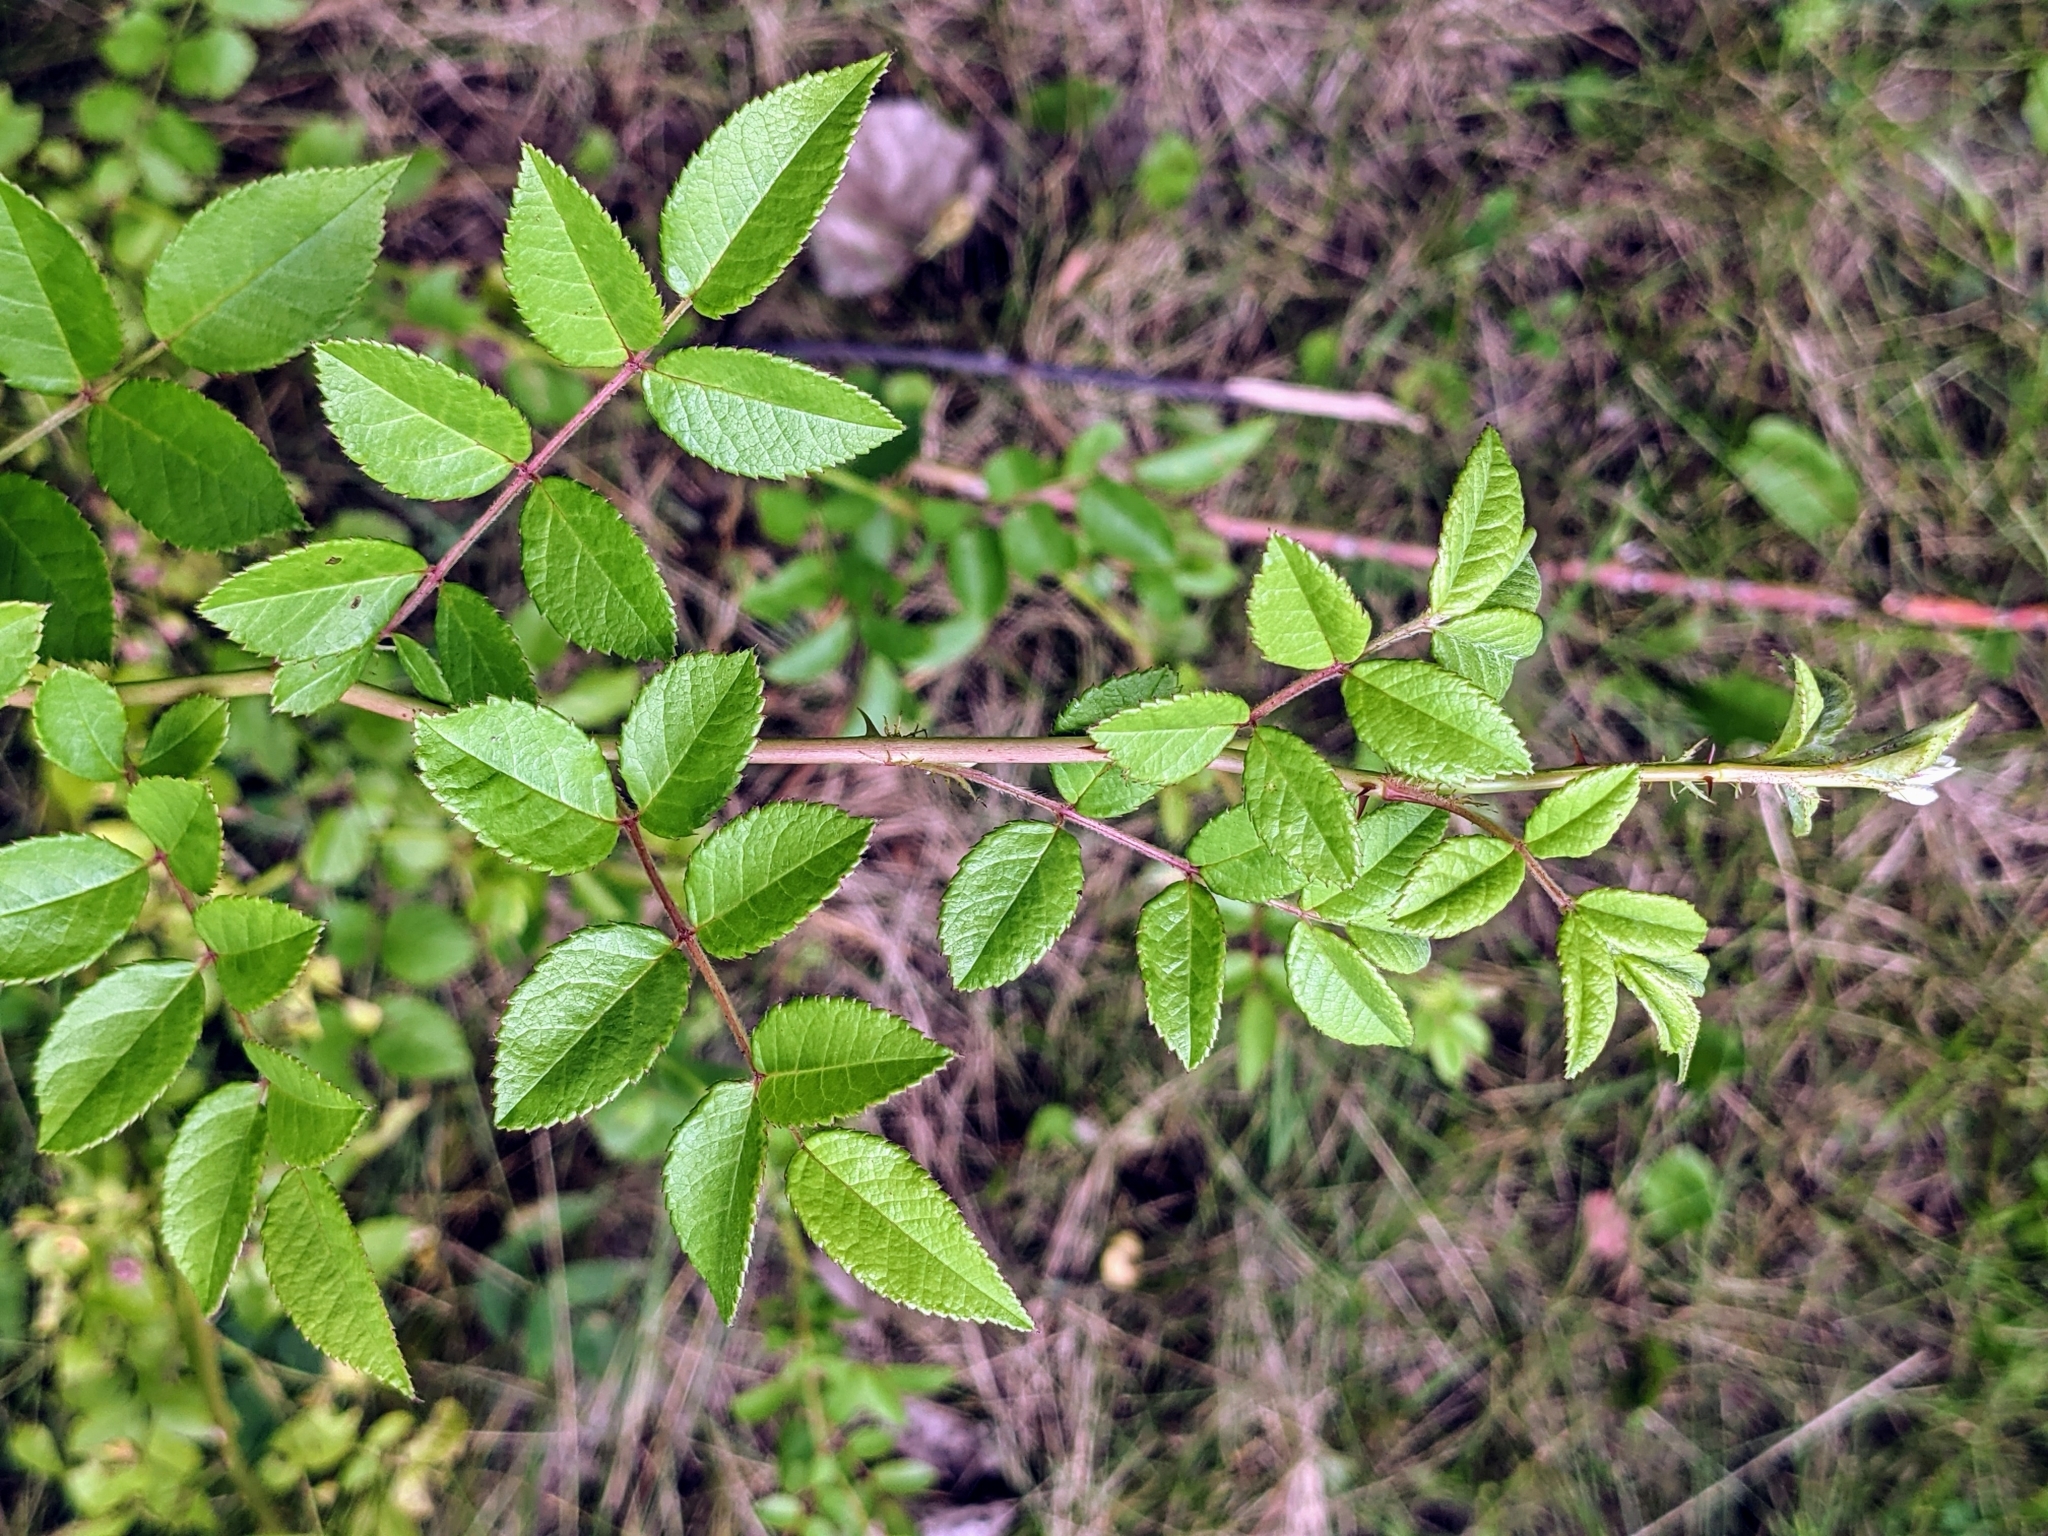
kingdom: Plantae
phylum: Tracheophyta
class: Magnoliopsida
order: Rosales
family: Rosaceae
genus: Rosa
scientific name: Rosa multiflora
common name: Multiflora rose
